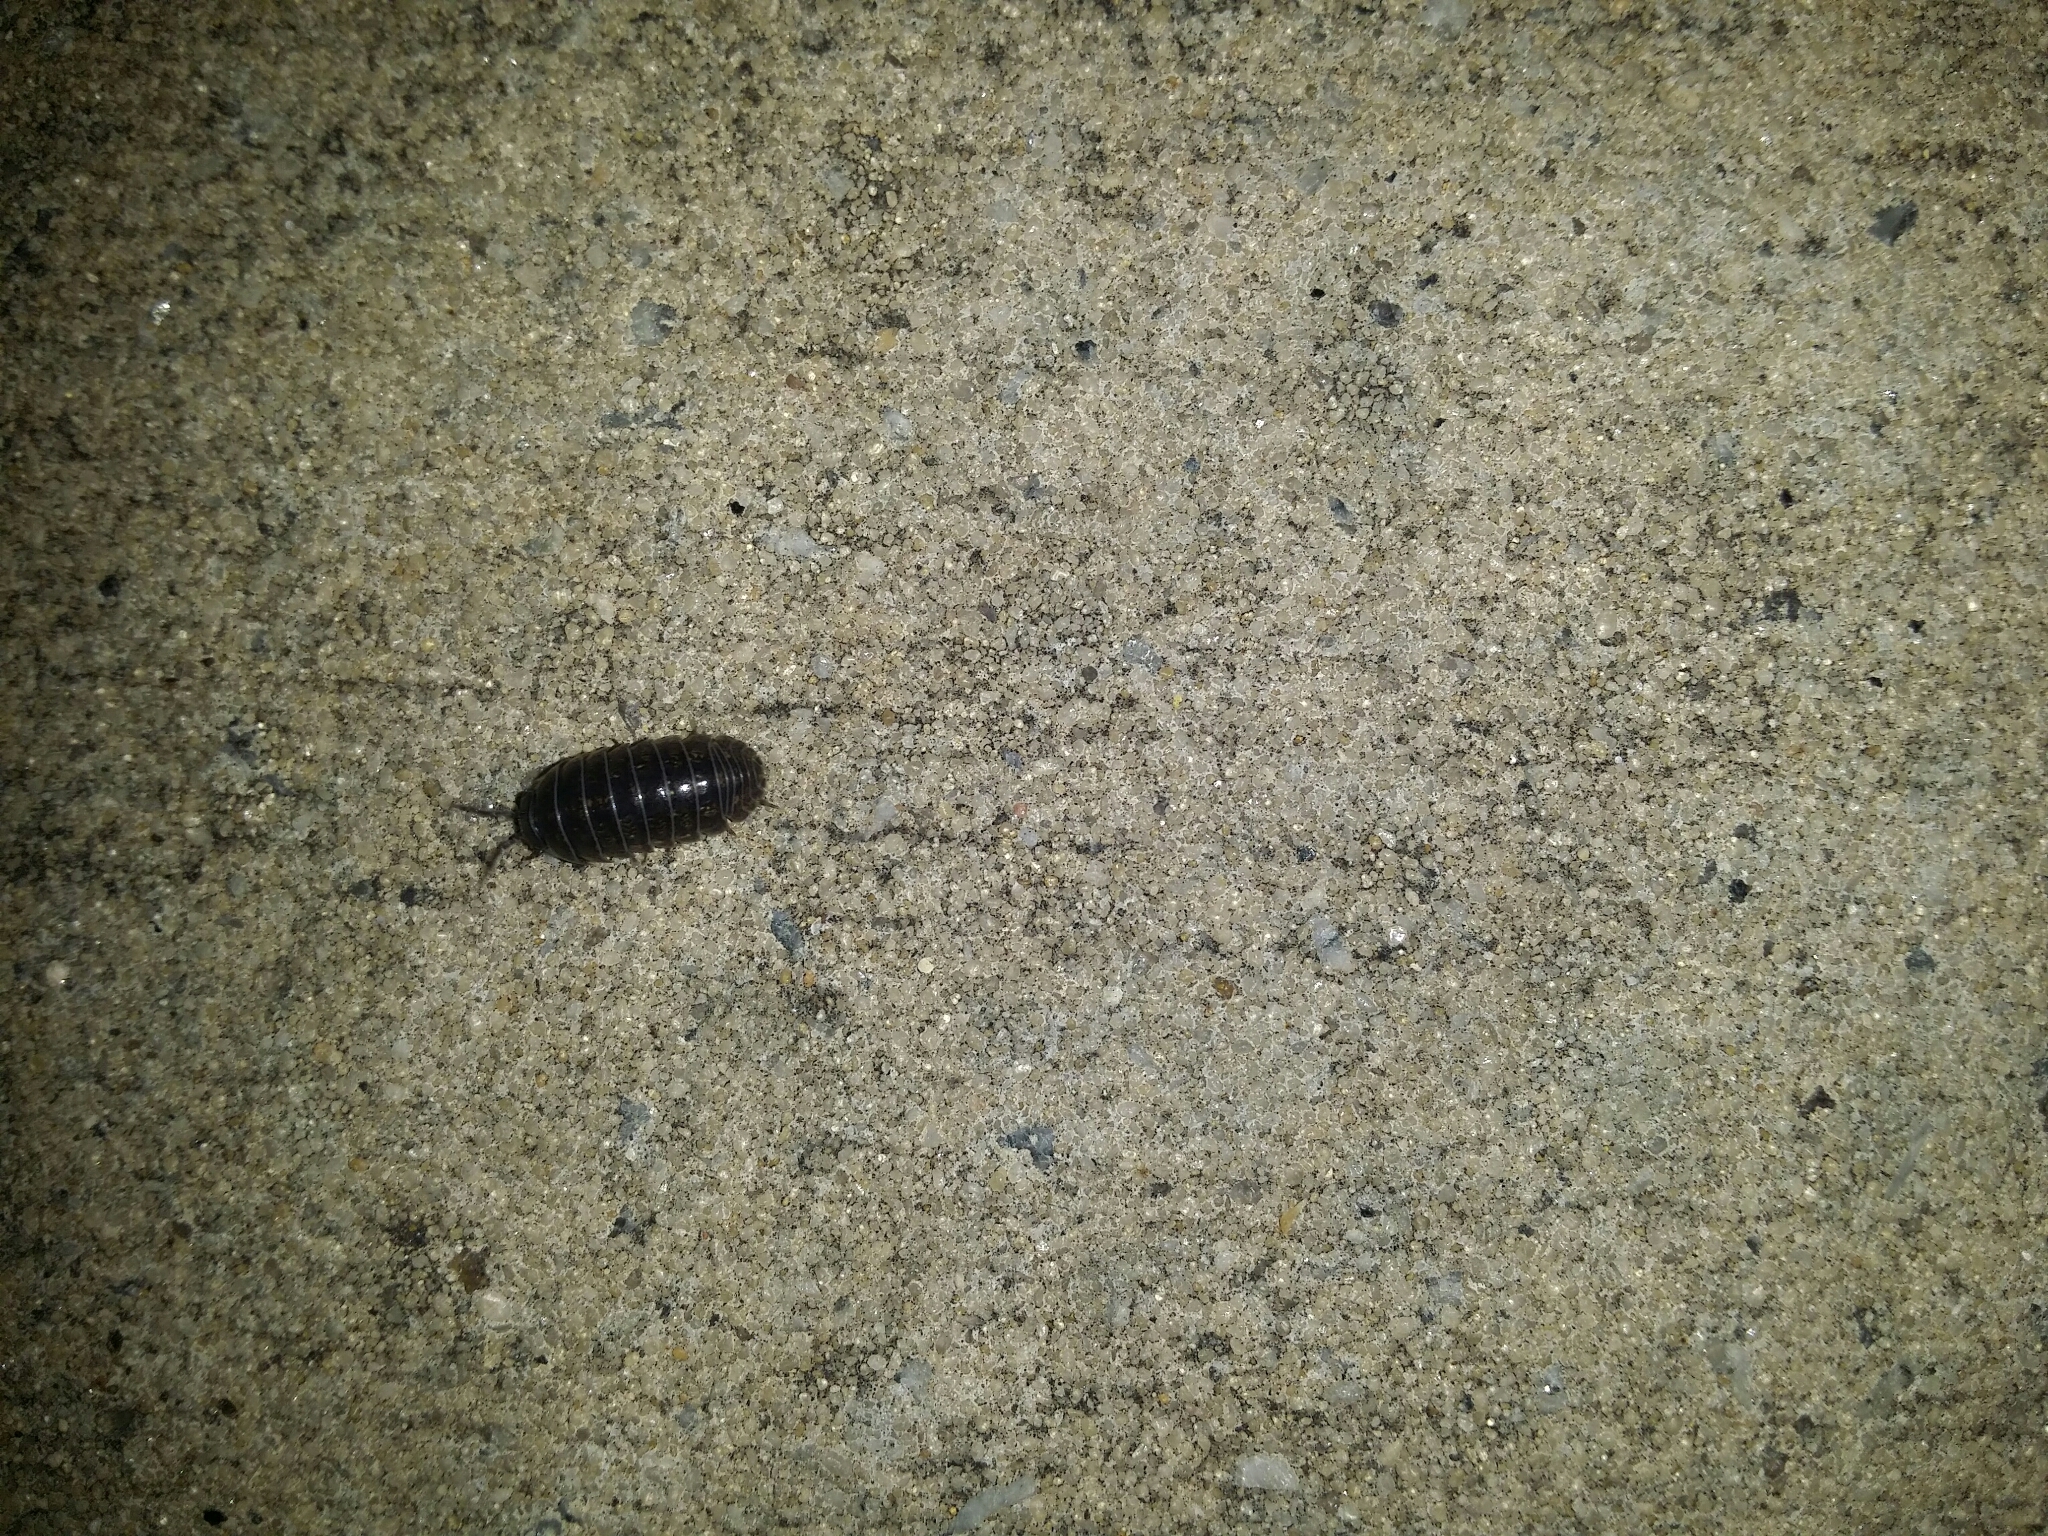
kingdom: Animalia
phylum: Arthropoda
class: Malacostraca
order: Isopoda
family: Armadillidiidae
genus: Armadillidium
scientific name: Armadillidium vulgare
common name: Common pill woodlouse
